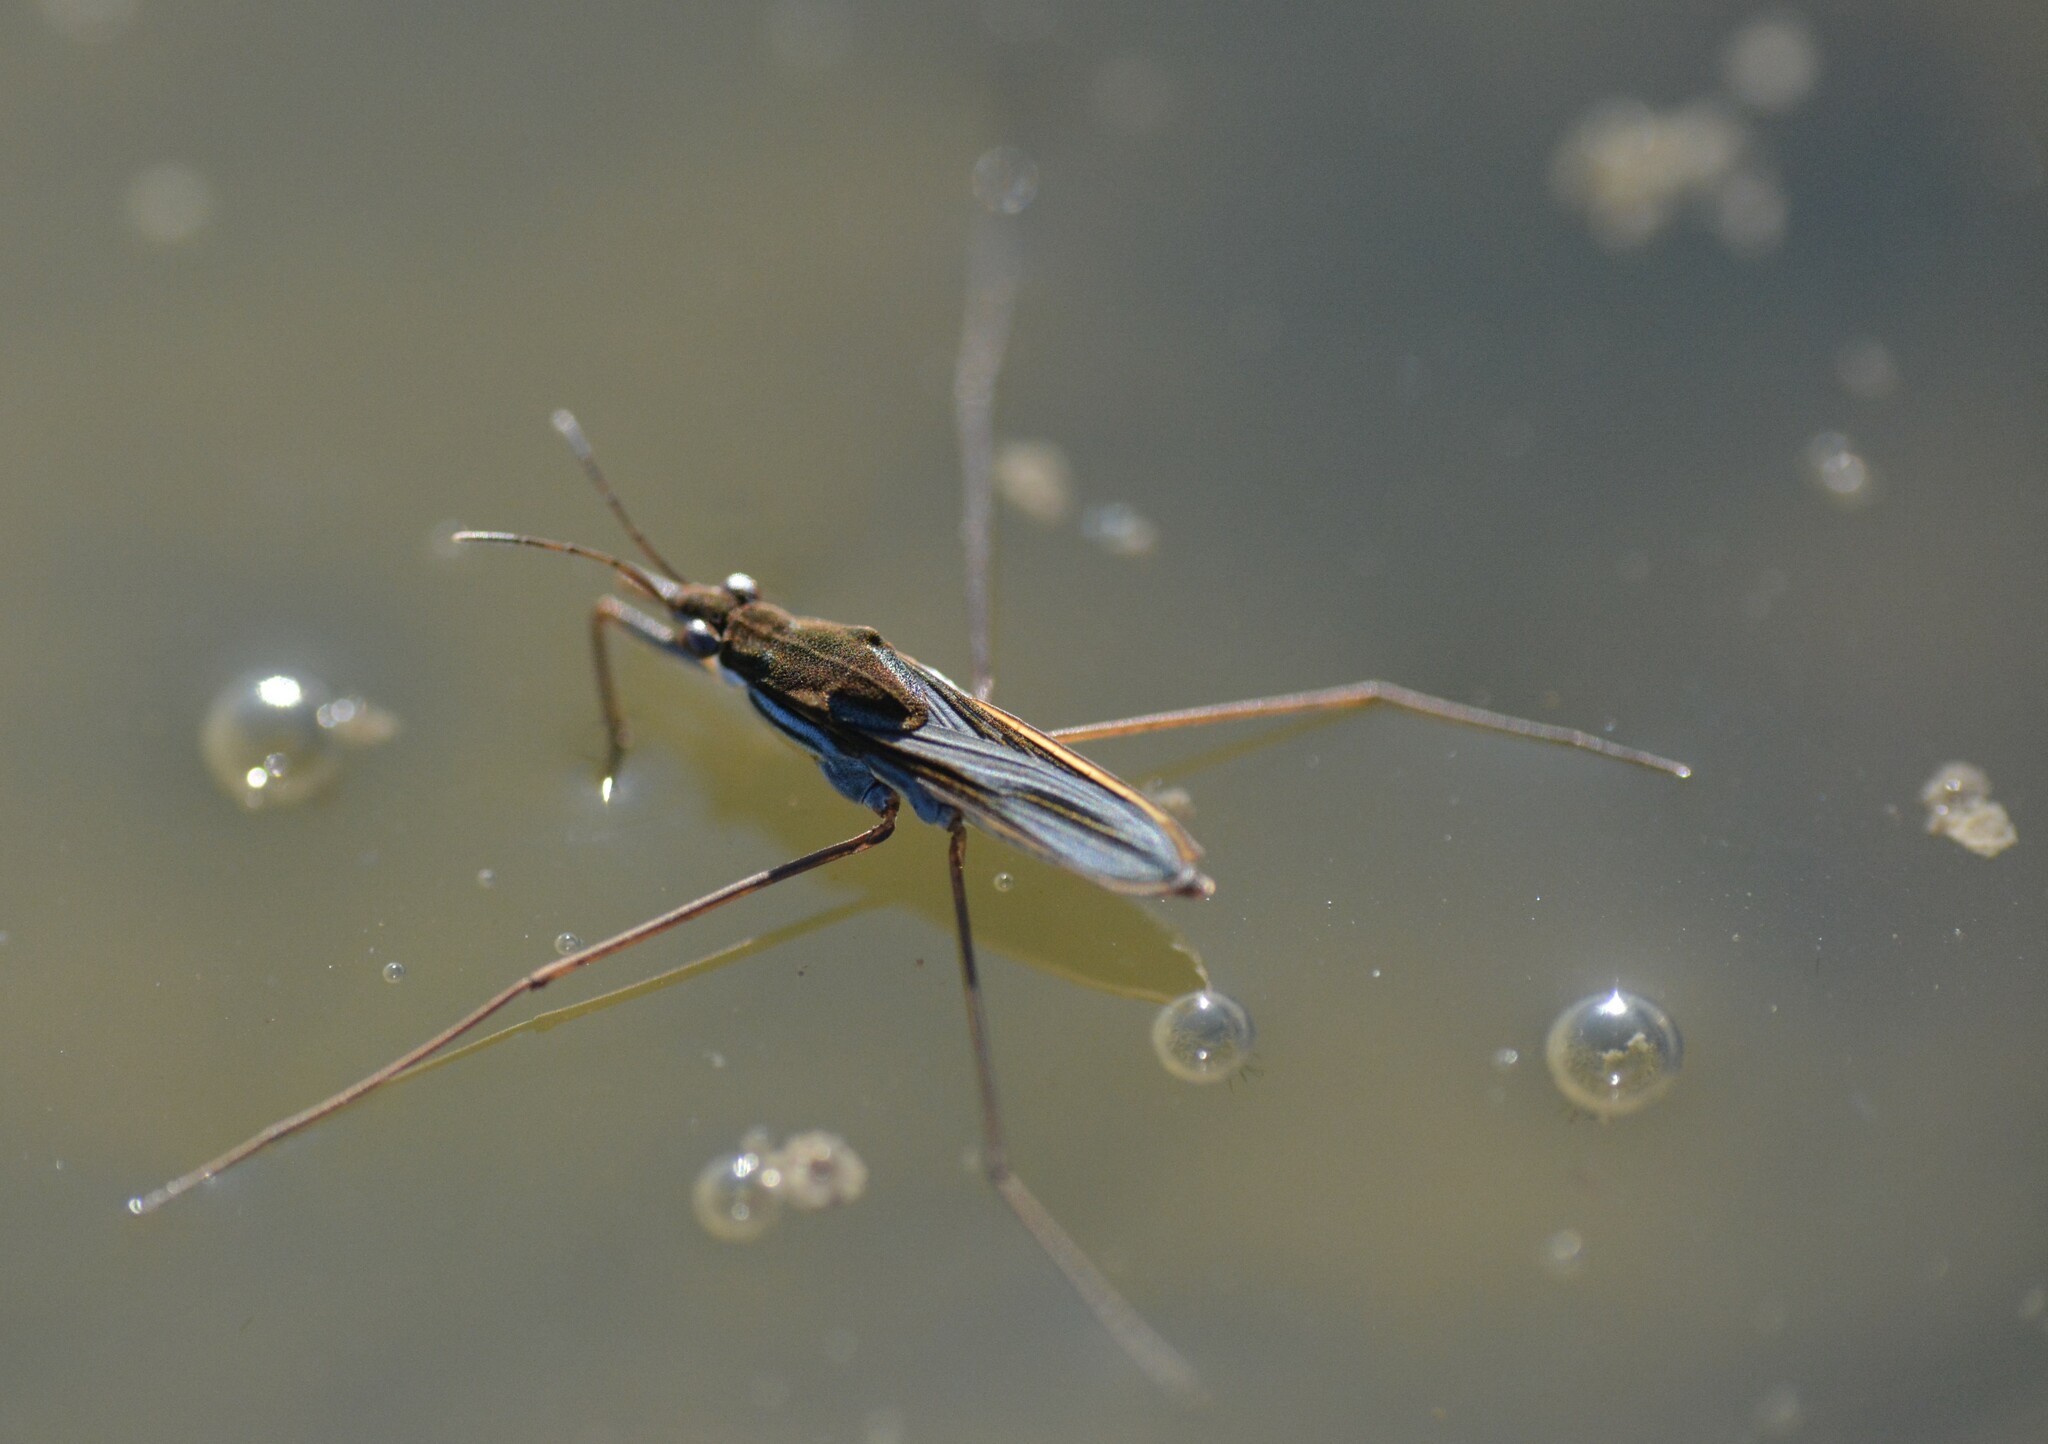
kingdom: Animalia
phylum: Arthropoda
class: Insecta
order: Hemiptera
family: Gerridae
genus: Gerris
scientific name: Gerris
